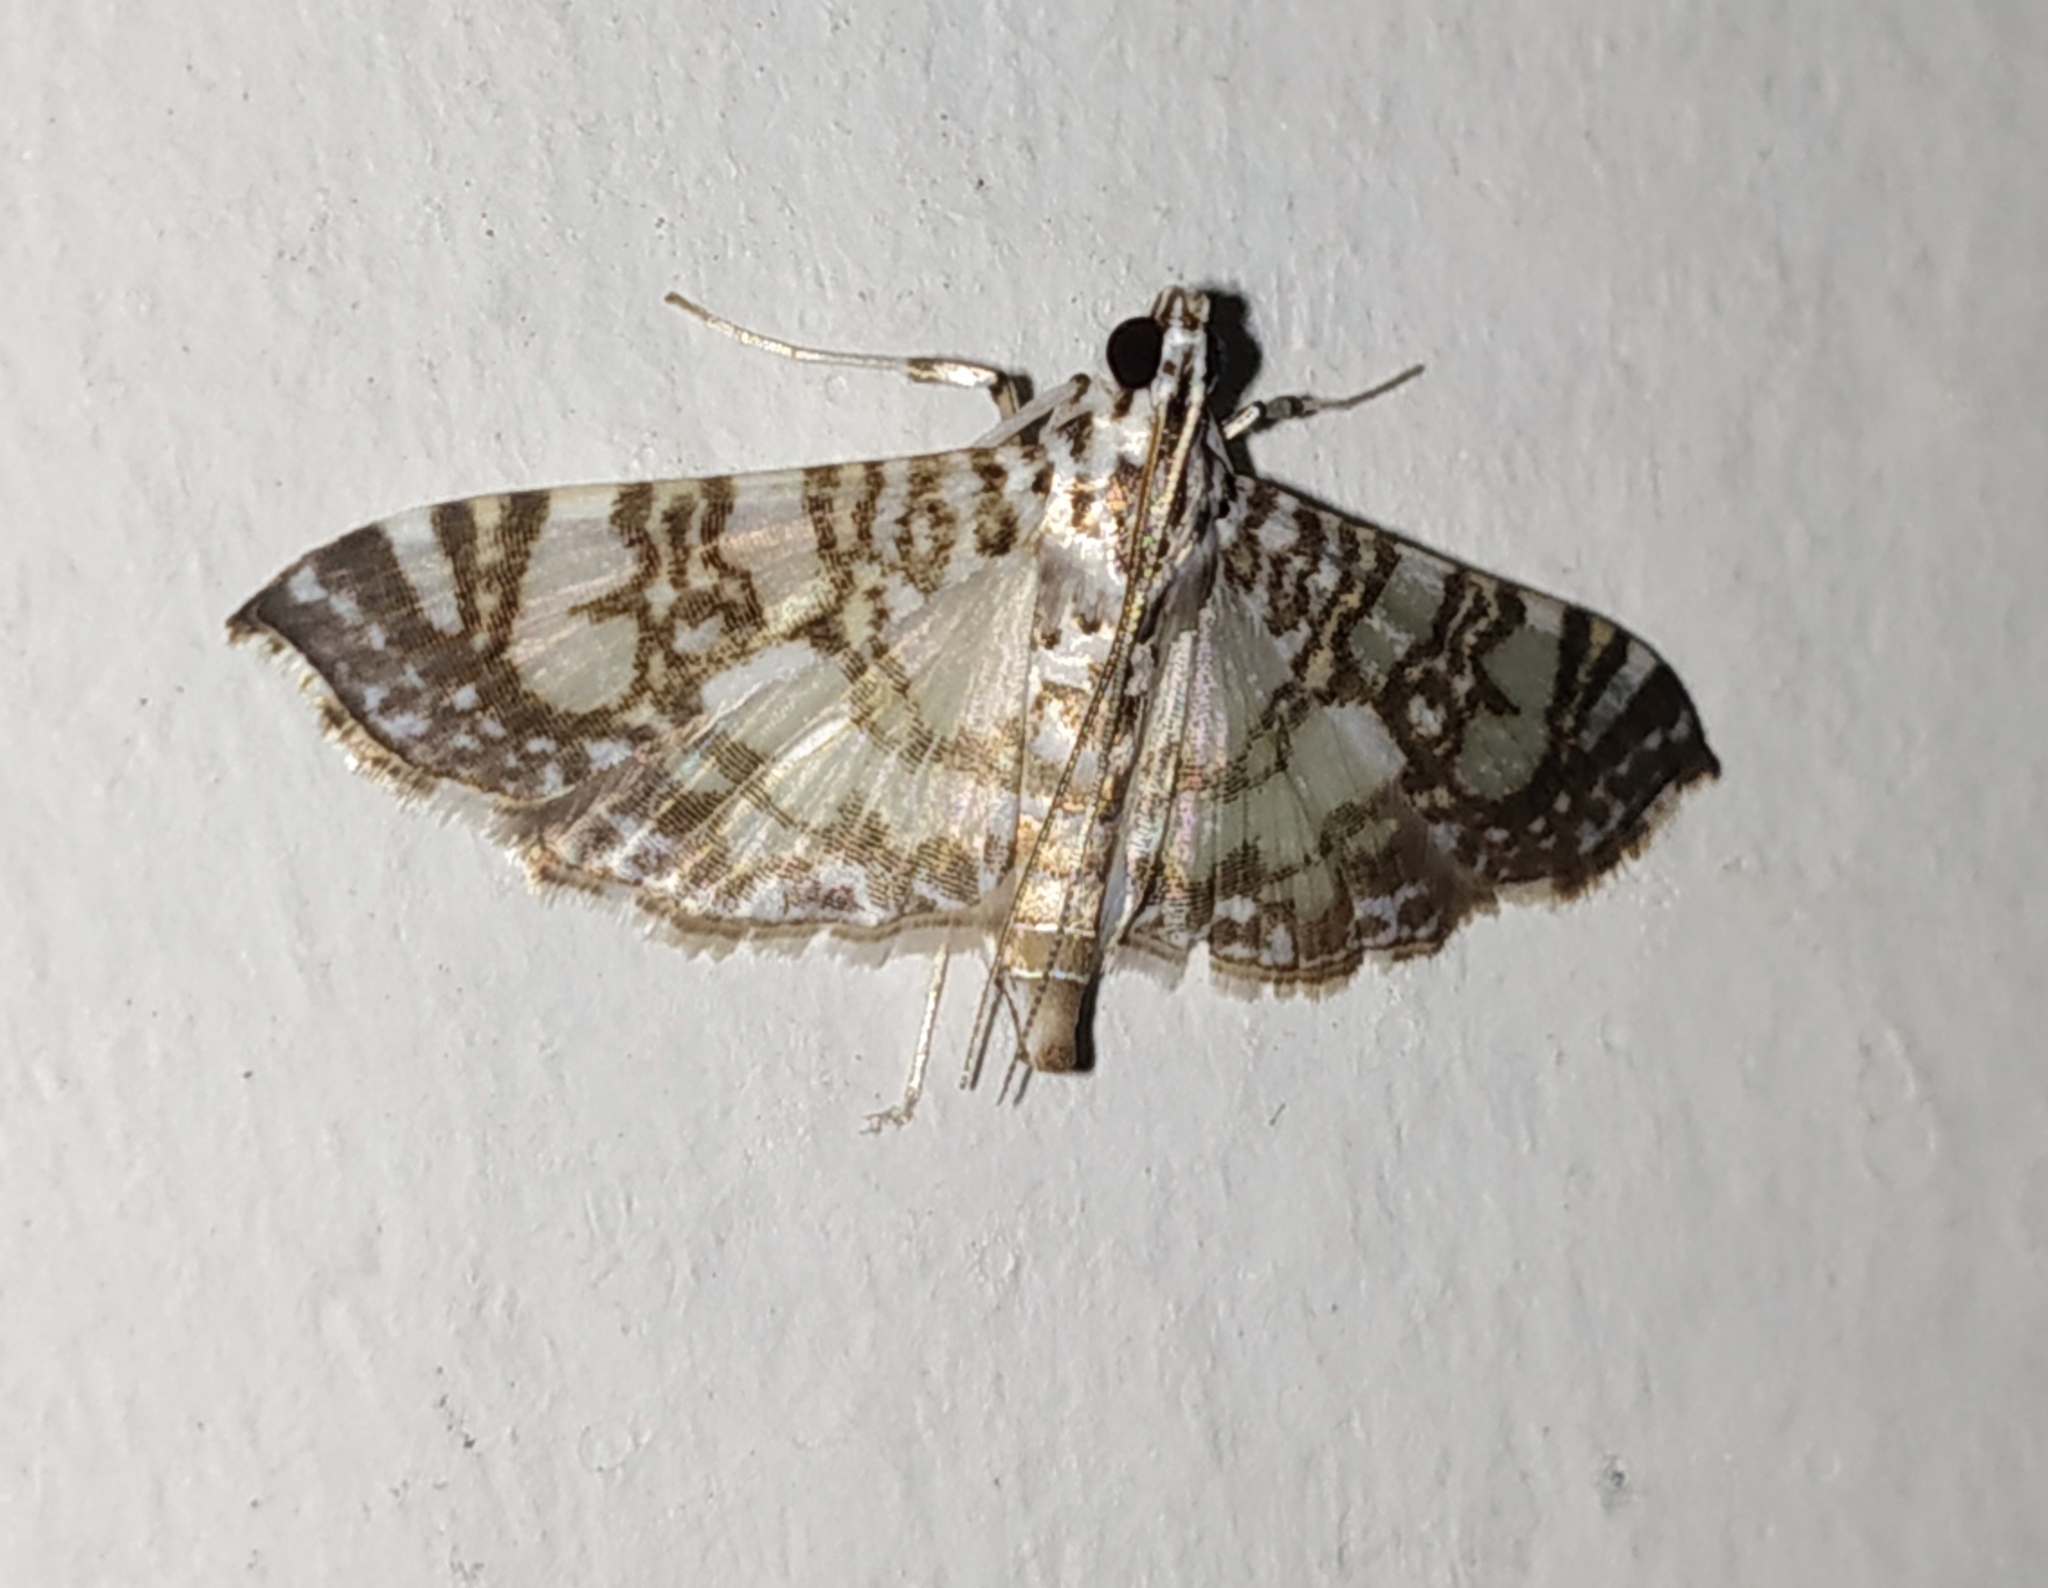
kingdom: Animalia
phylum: Arthropoda
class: Insecta
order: Lepidoptera
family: Crambidae
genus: Glyphodes
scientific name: Glyphodes onychinalis
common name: Swan plant moth
